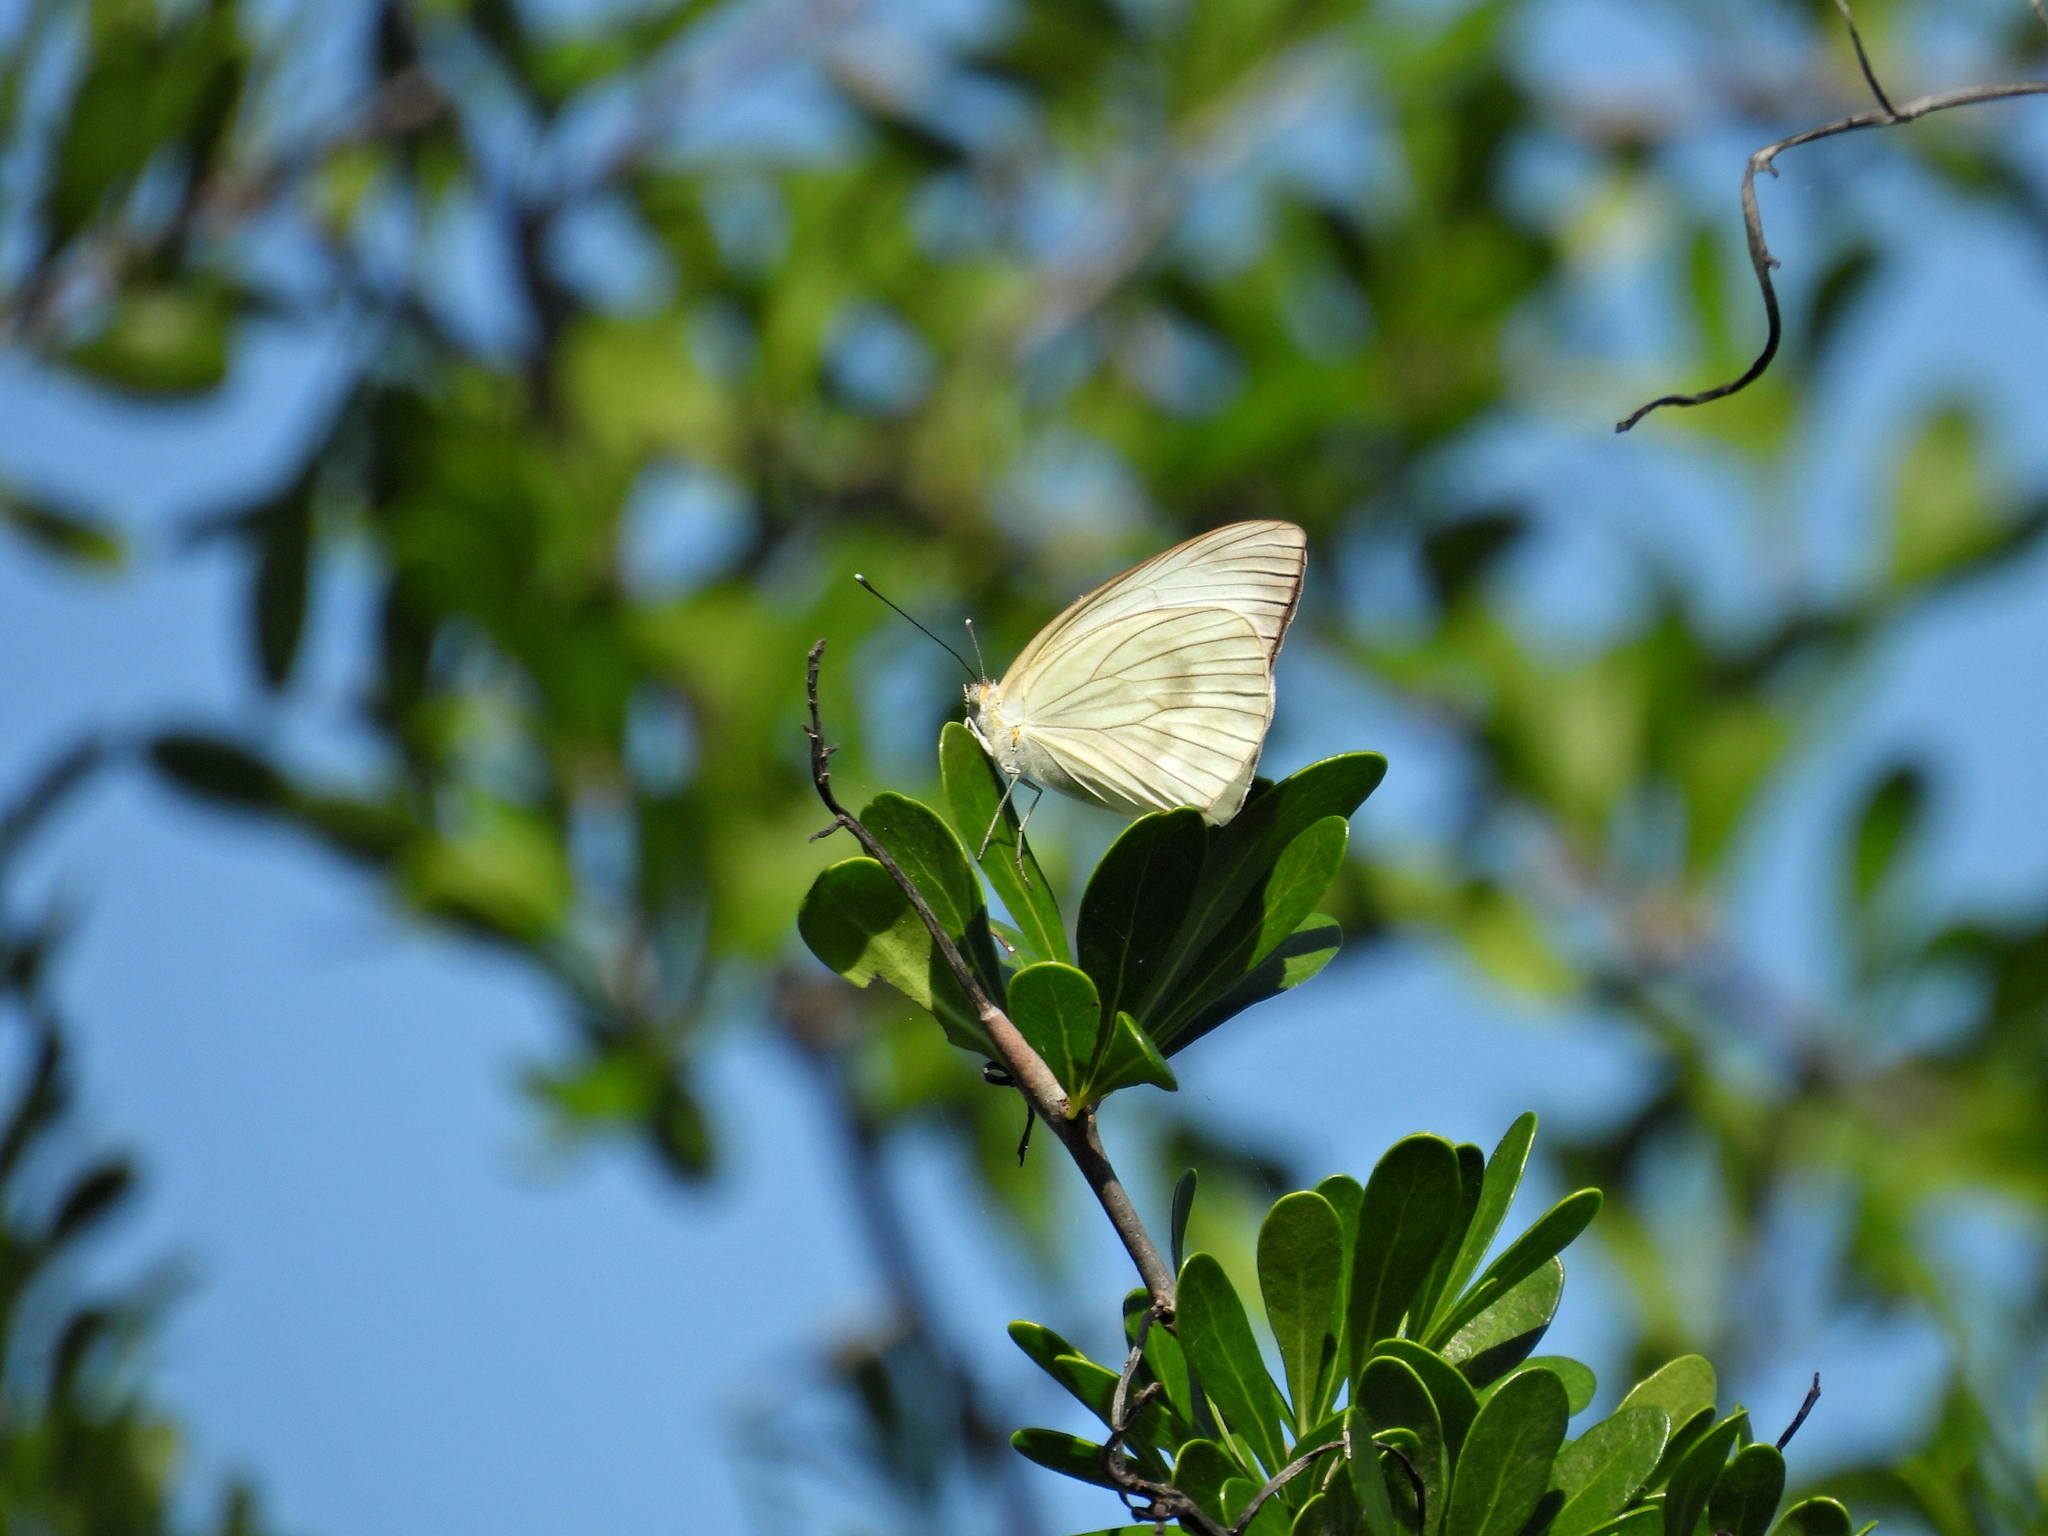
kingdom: Animalia
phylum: Arthropoda
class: Insecta
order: Lepidoptera
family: Pieridae
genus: Ascia
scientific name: Ascia monuste
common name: Great southern white
